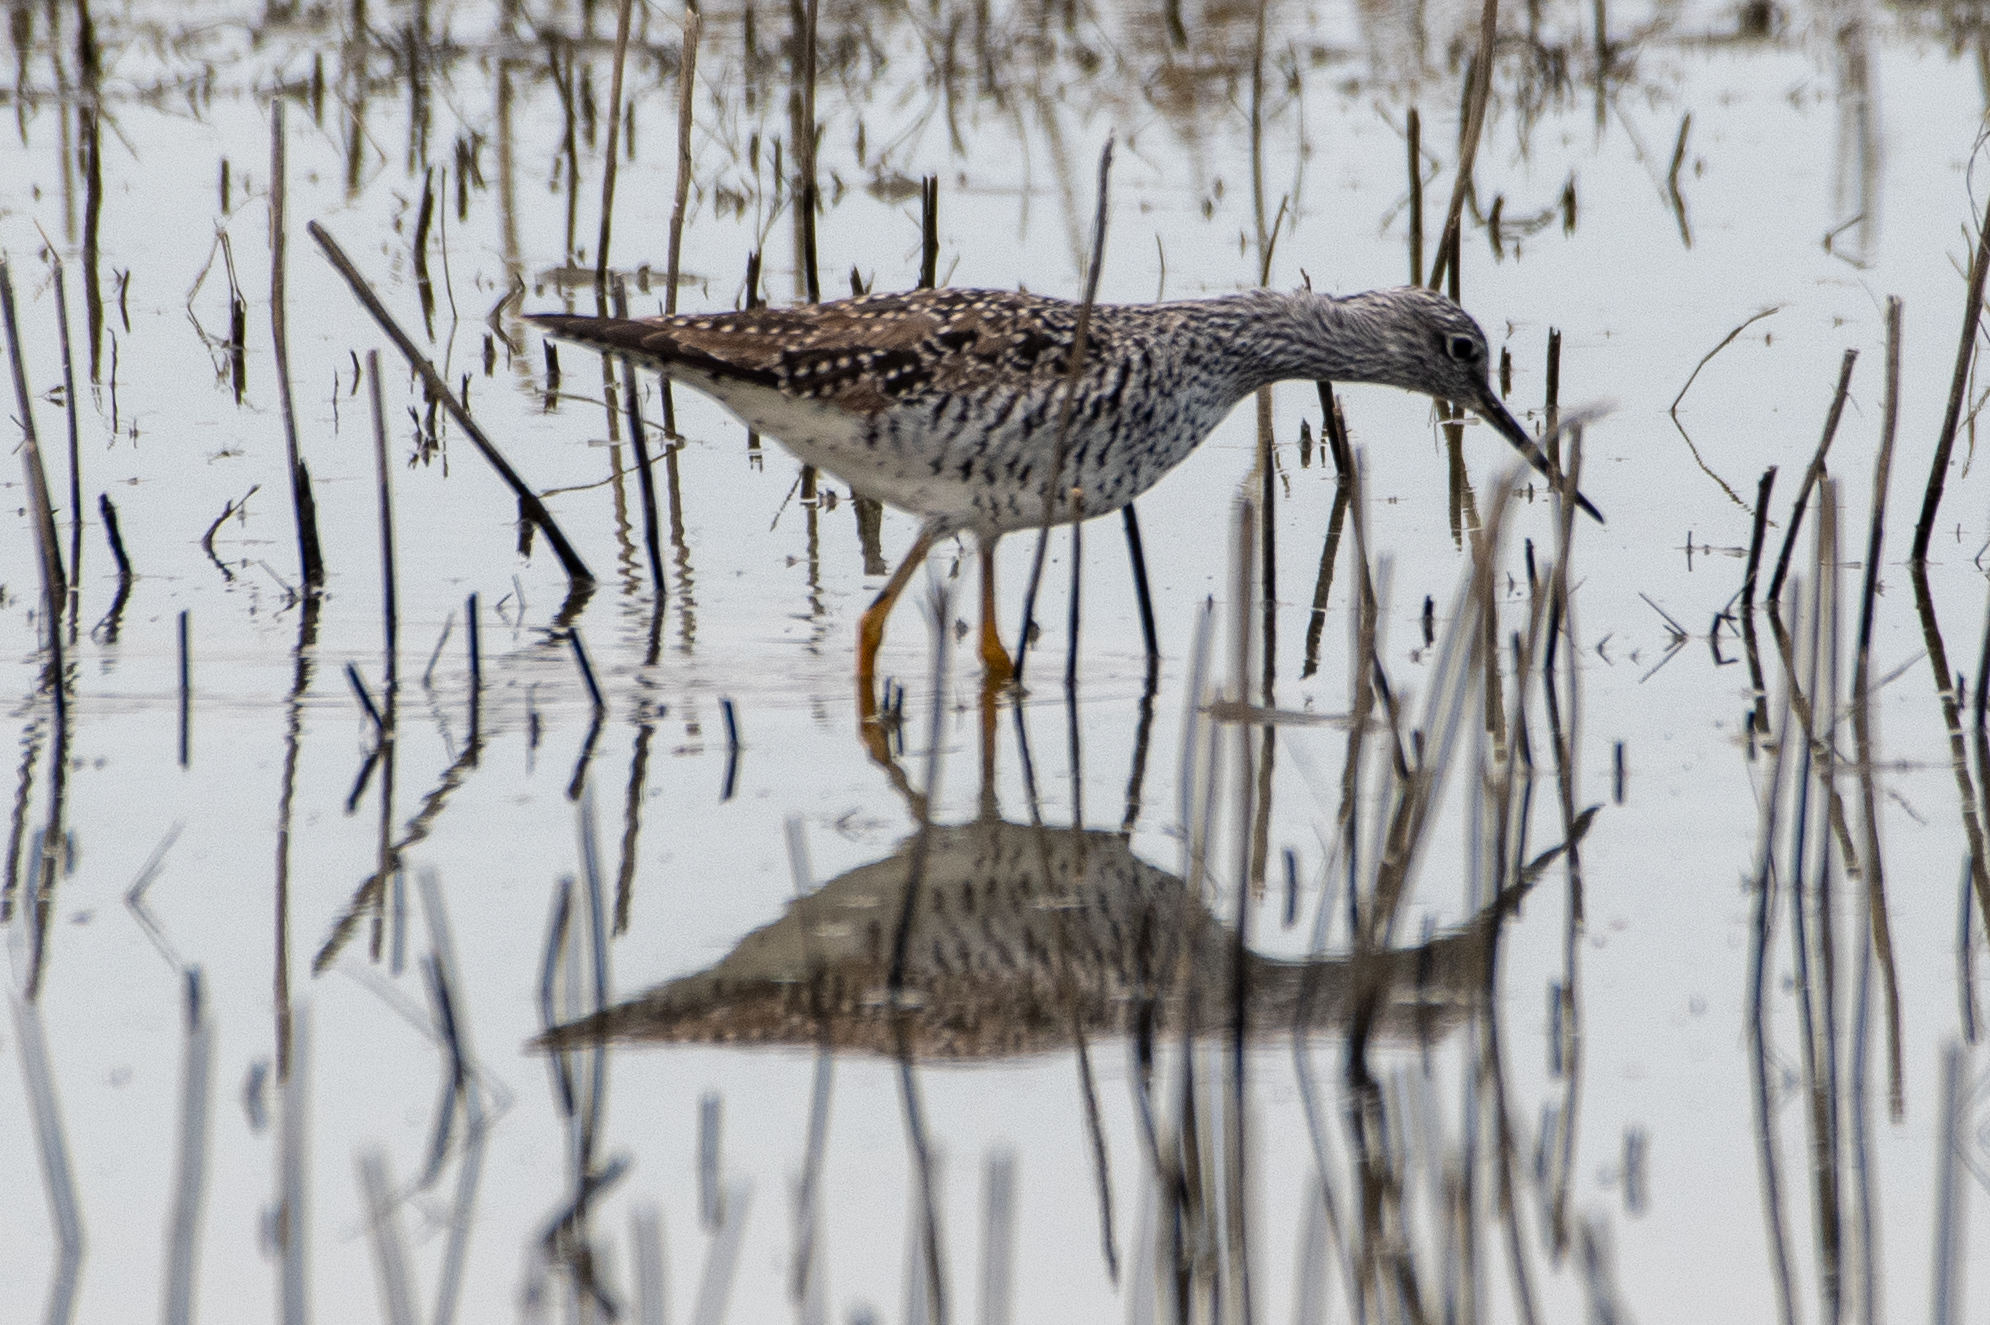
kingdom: Animalia
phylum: Chordata
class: Aves
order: Charadriiformes
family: Scolopacidae
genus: Tringa
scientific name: Tringa melanoleuca
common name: Greater yellowlegs
